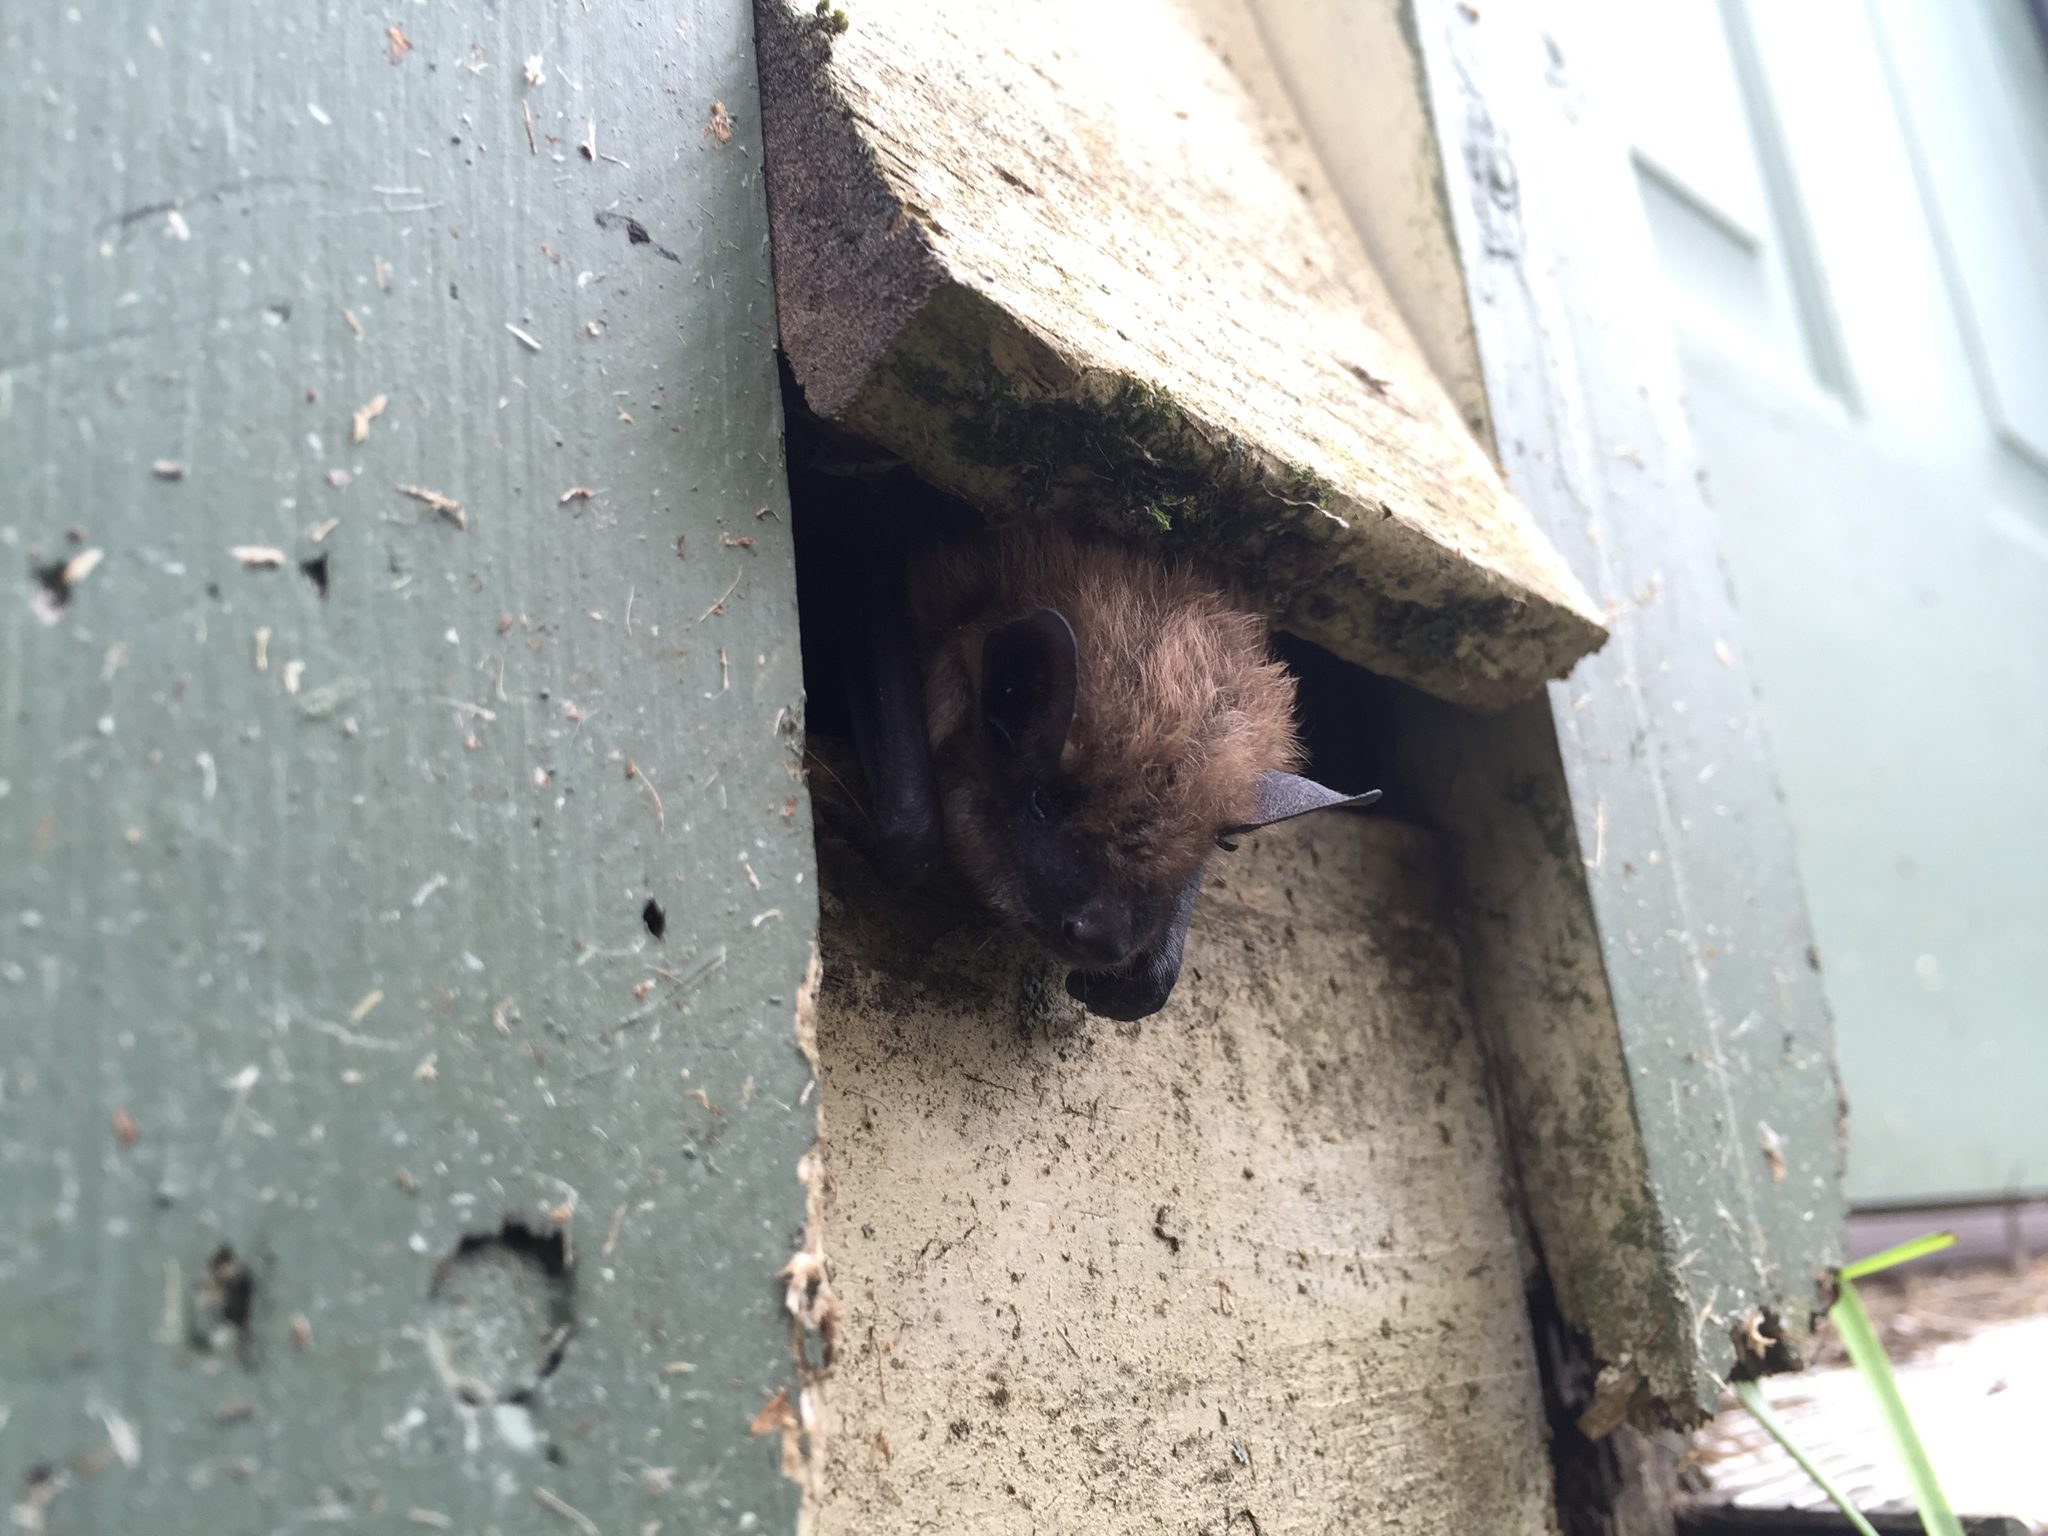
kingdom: Animalia
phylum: Chordata
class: Mammalia
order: Chiroptera
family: Vespertilionidae
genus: Eptesicus
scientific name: Eptesicus fuscus
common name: Big brown bat
